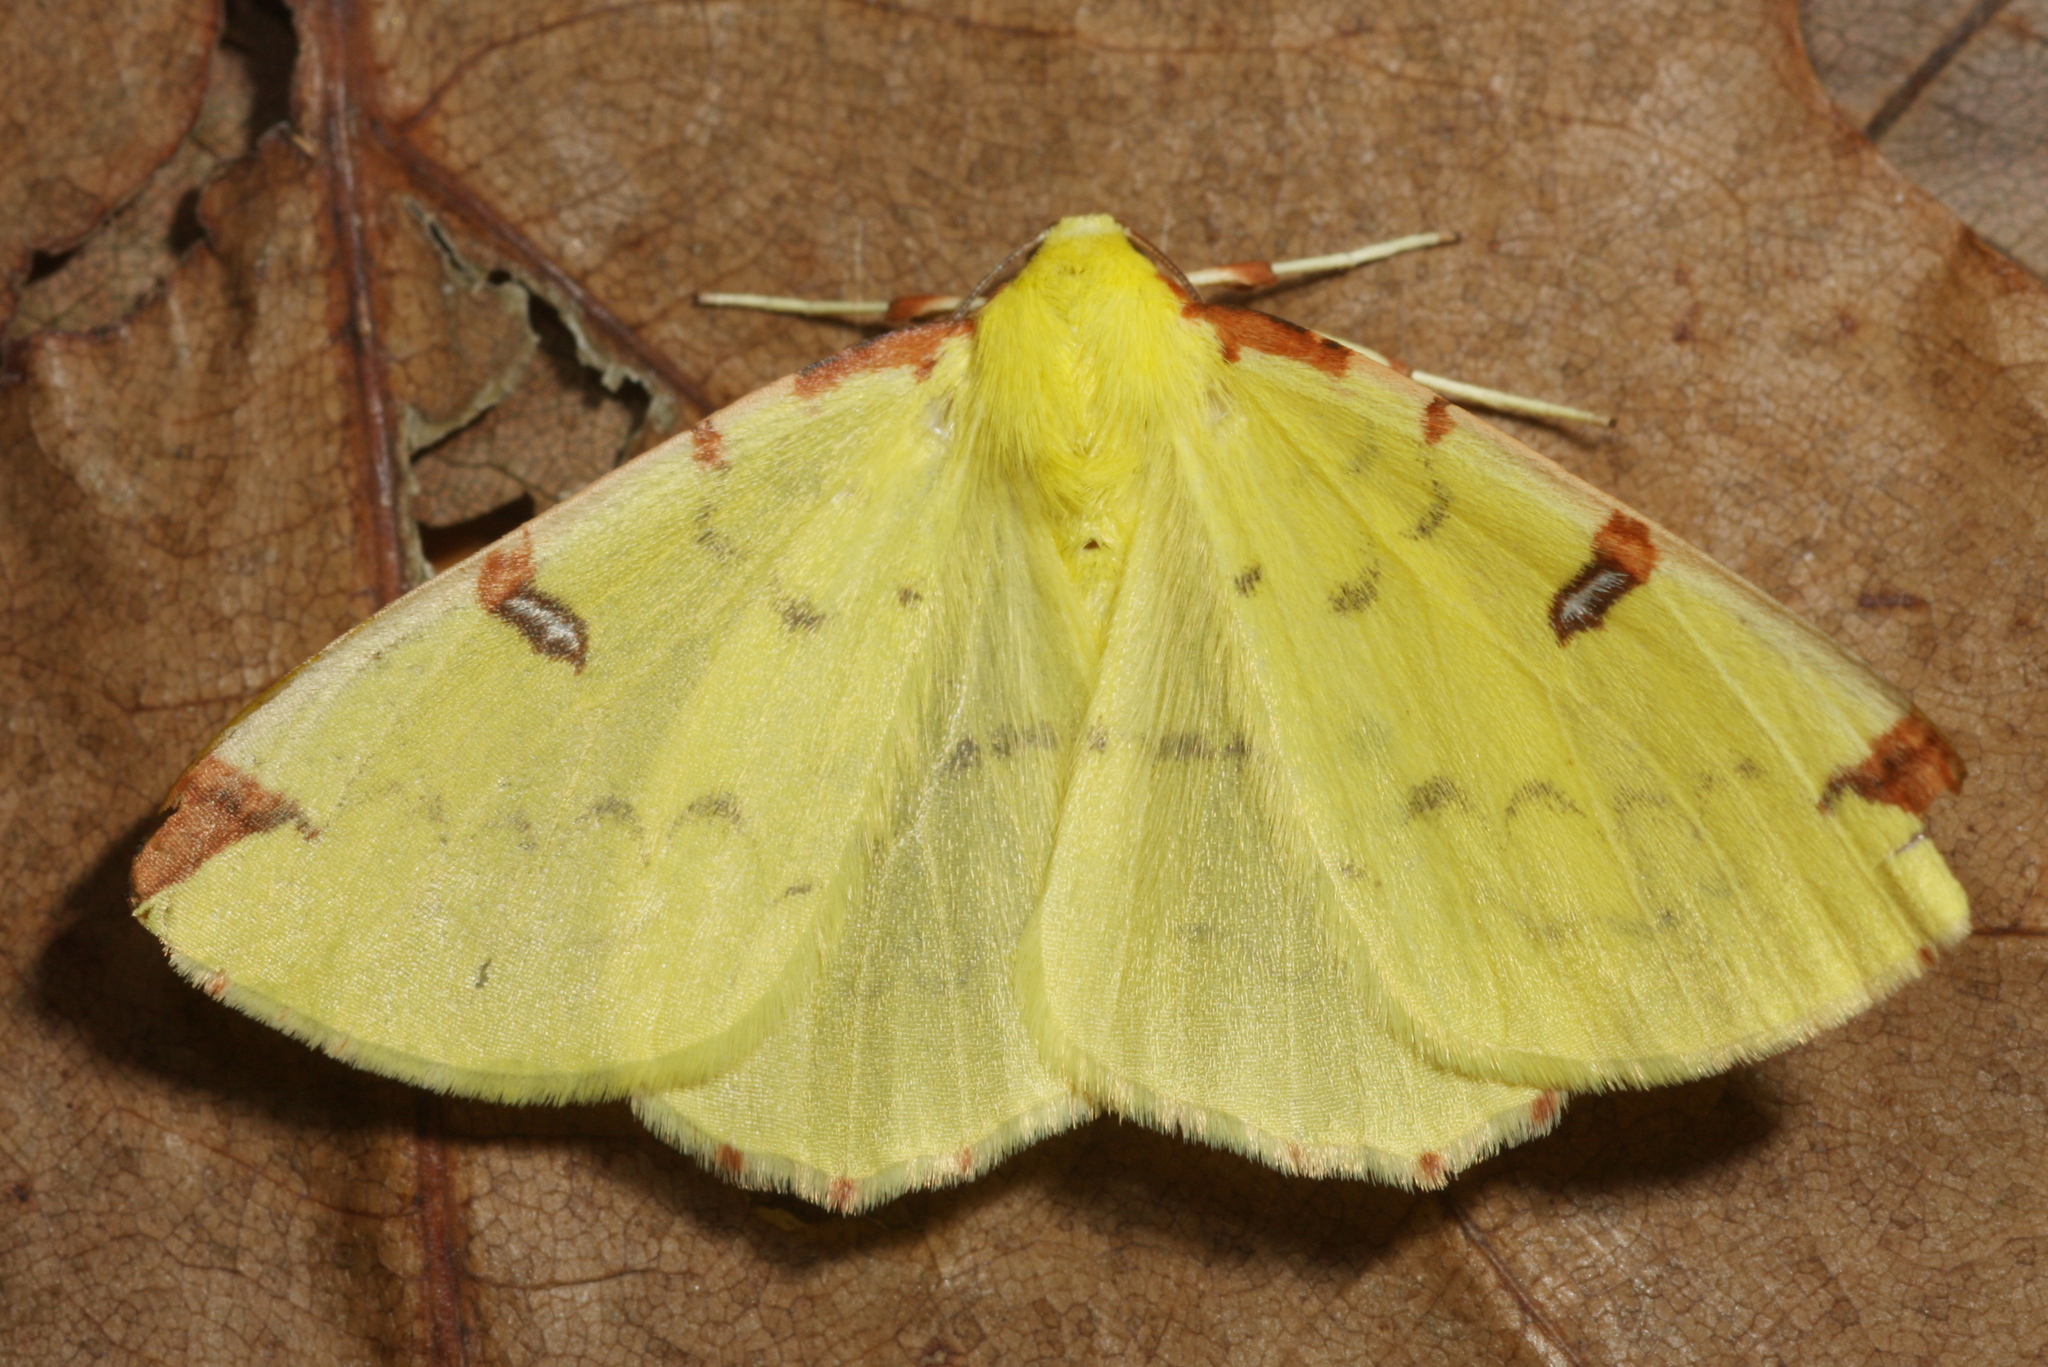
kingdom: Animalia
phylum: Arthropoda
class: Insecta
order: Lepidoptera
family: Geometridae
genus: Opisthograptis
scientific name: Opisthograptis luteolata
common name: Brimstone moth
